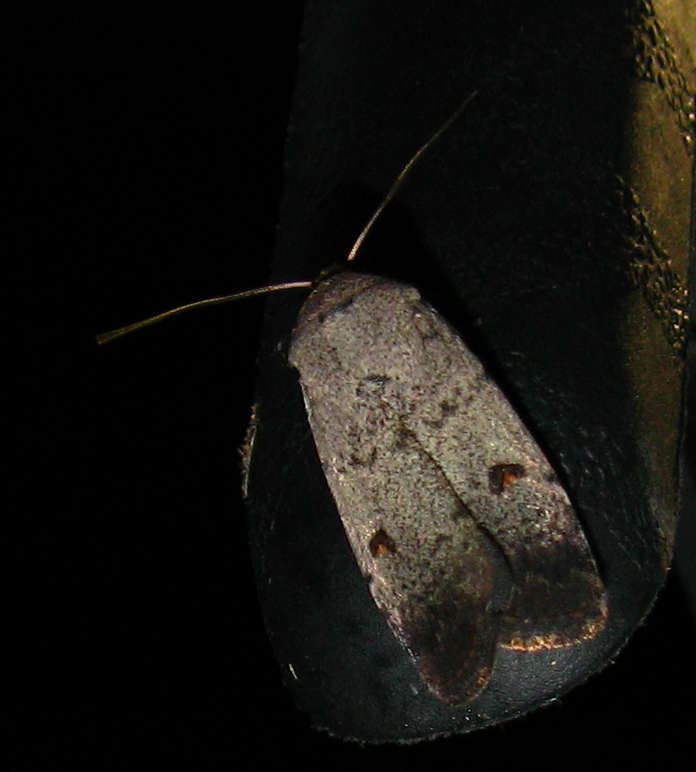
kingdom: Animalia
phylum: Arthropoda
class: Insecta
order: Lepidoptera
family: Noctuidae
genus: Proteuxoa
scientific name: Proteuxoa tibiata
